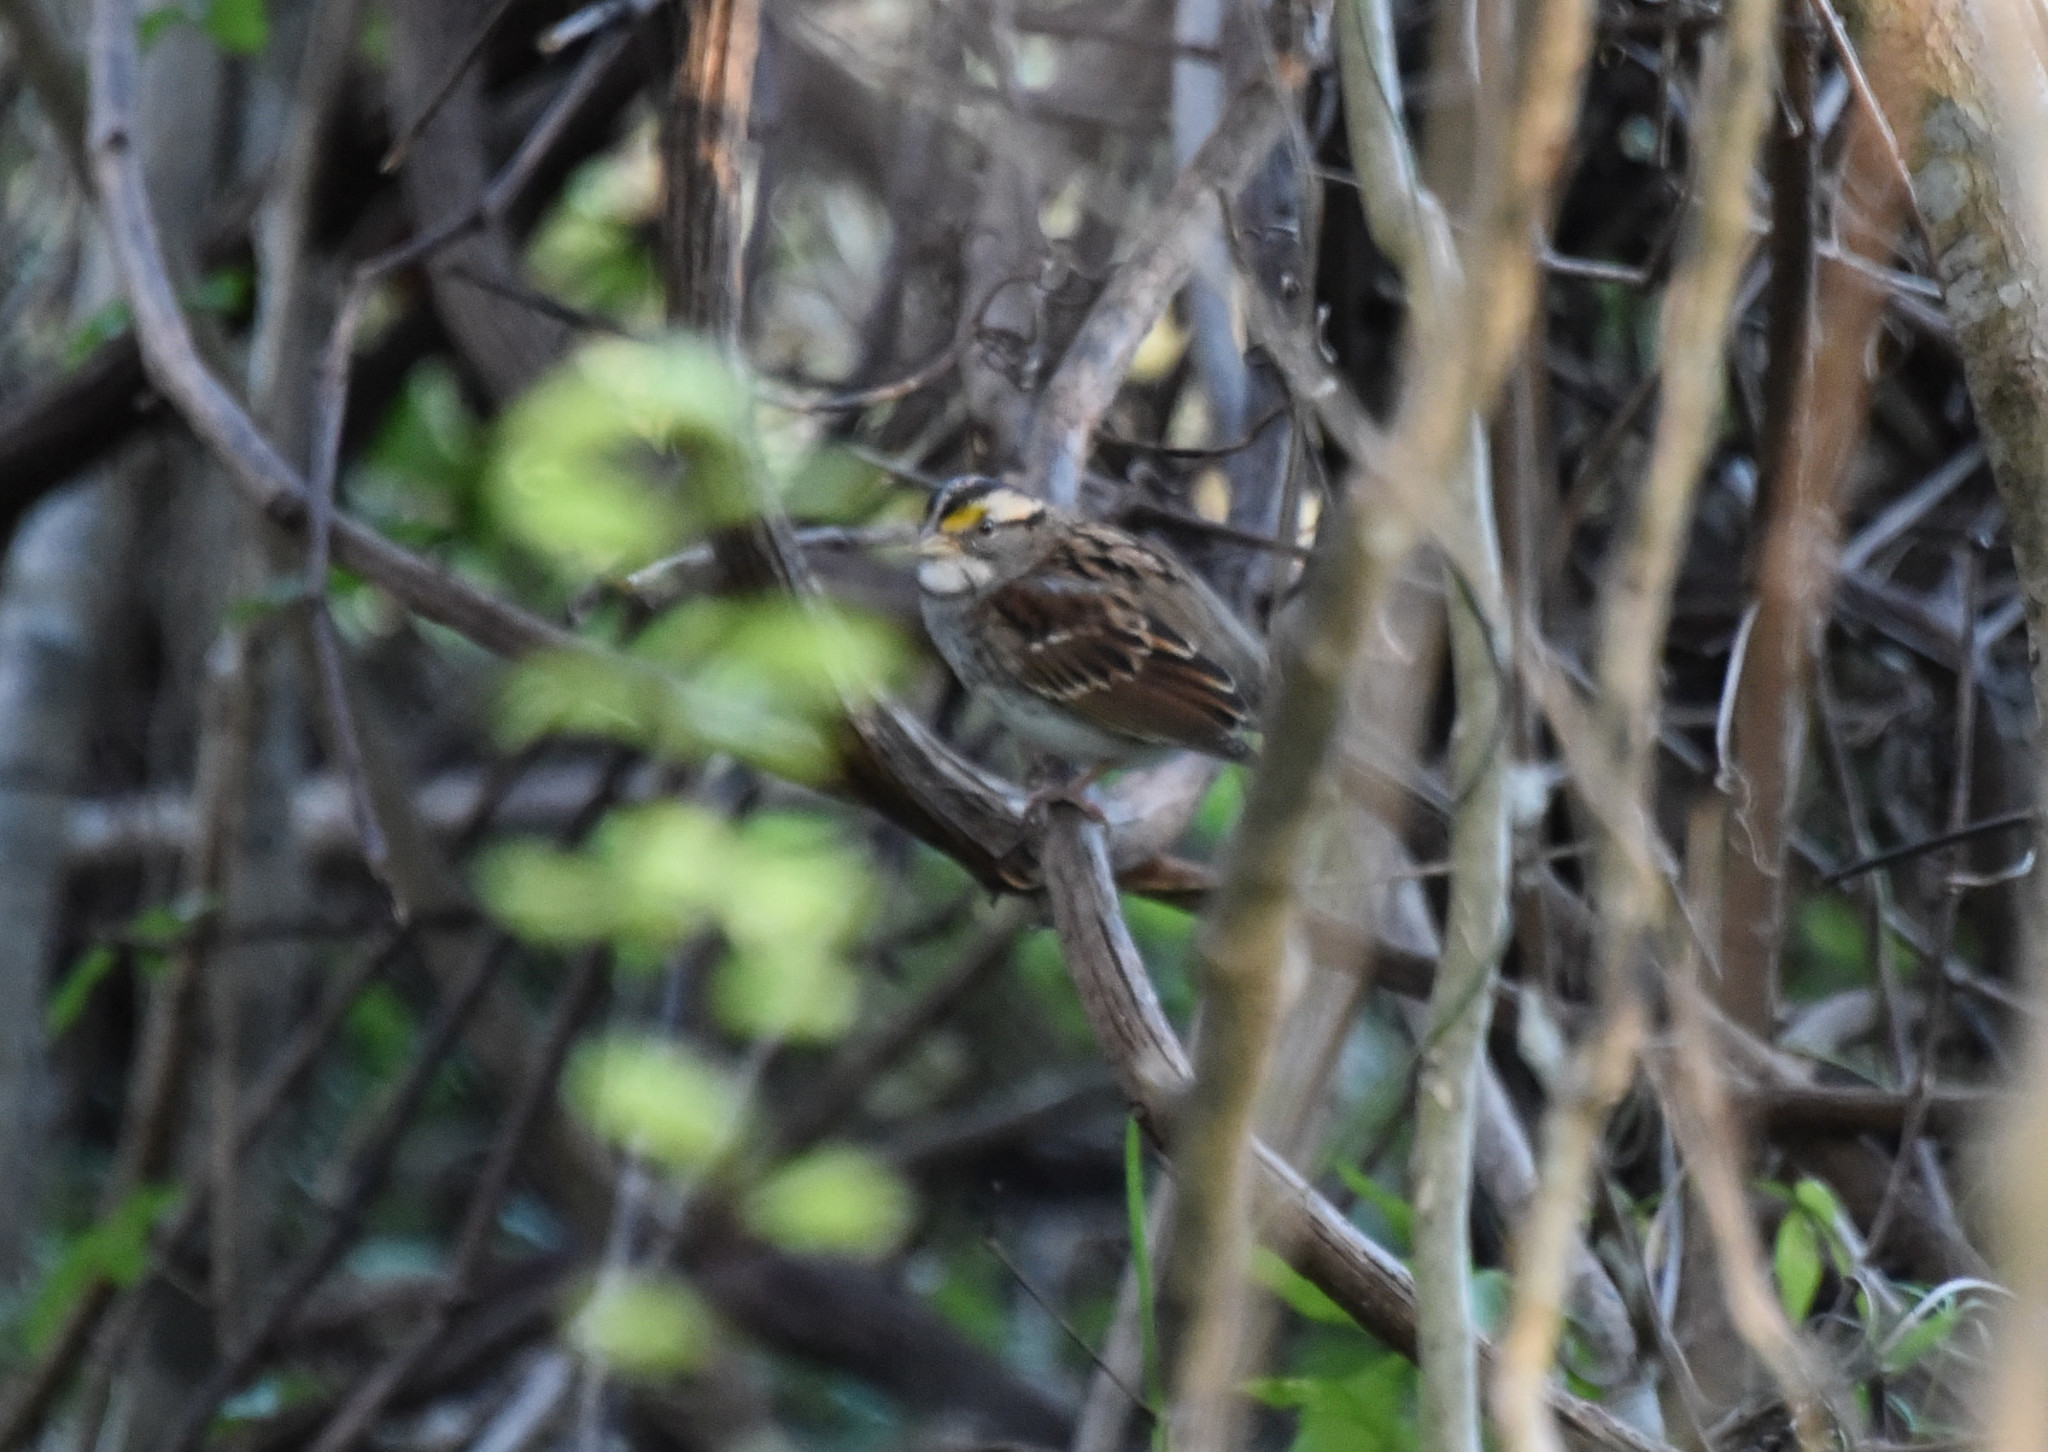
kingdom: Animalia
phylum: Chordata
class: Aves
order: Passeriformes
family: Passerellidae
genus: Zonotrichia
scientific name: Zonotrichia albicollis
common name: White-throated sparrow
